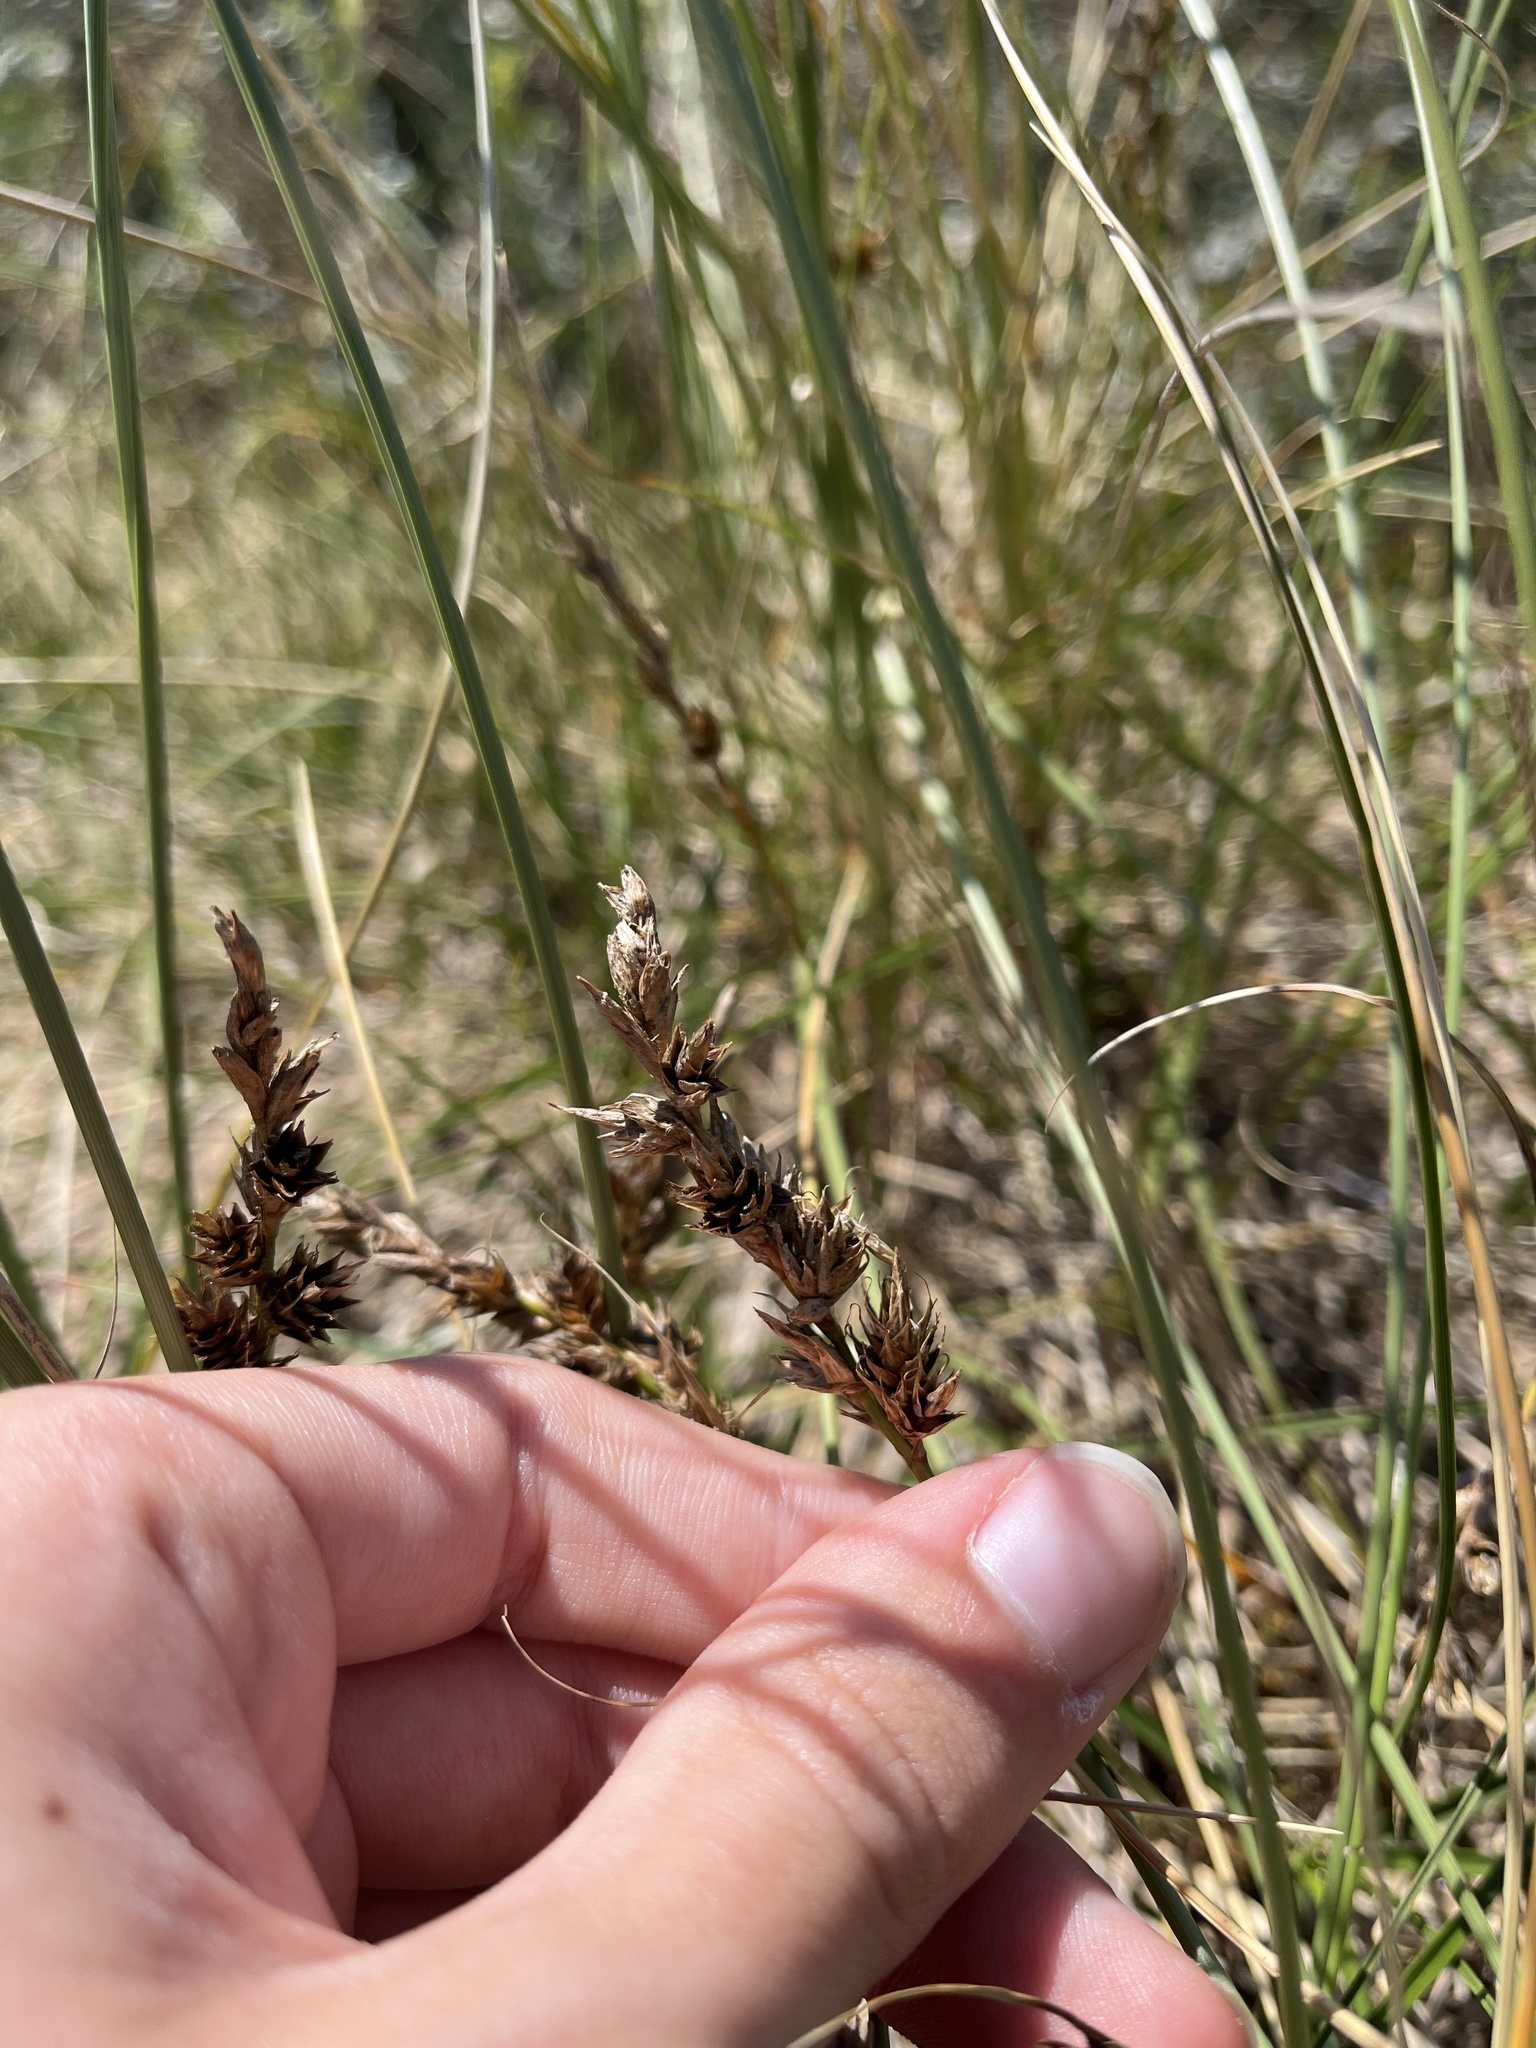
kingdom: Plantae
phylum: Tracheophyta
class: Liliopsida
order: Poales
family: Cyperaceae
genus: Carex
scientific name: Carex arenaria
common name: Sand sedge
